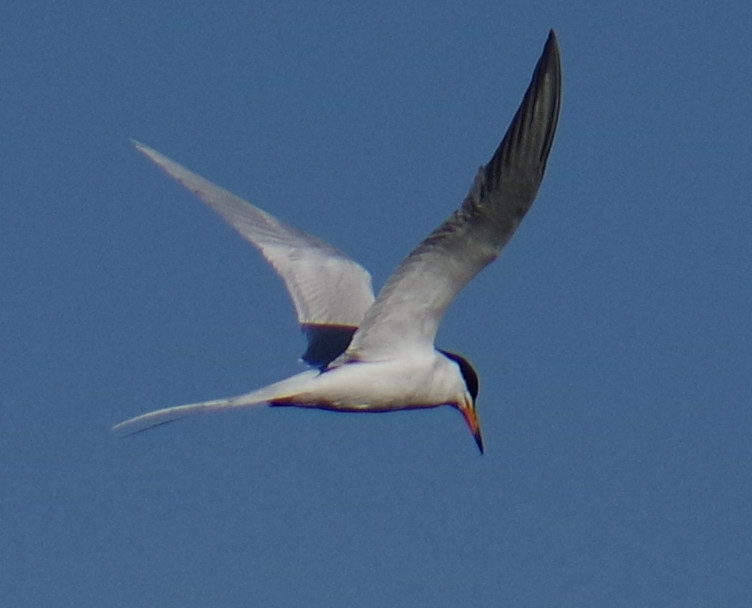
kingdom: Animalia
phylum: Chordata
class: Aves
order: Charadriiformes
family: Laridae
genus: Sterna
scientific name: Sterna forsteri
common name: Forster's tern
